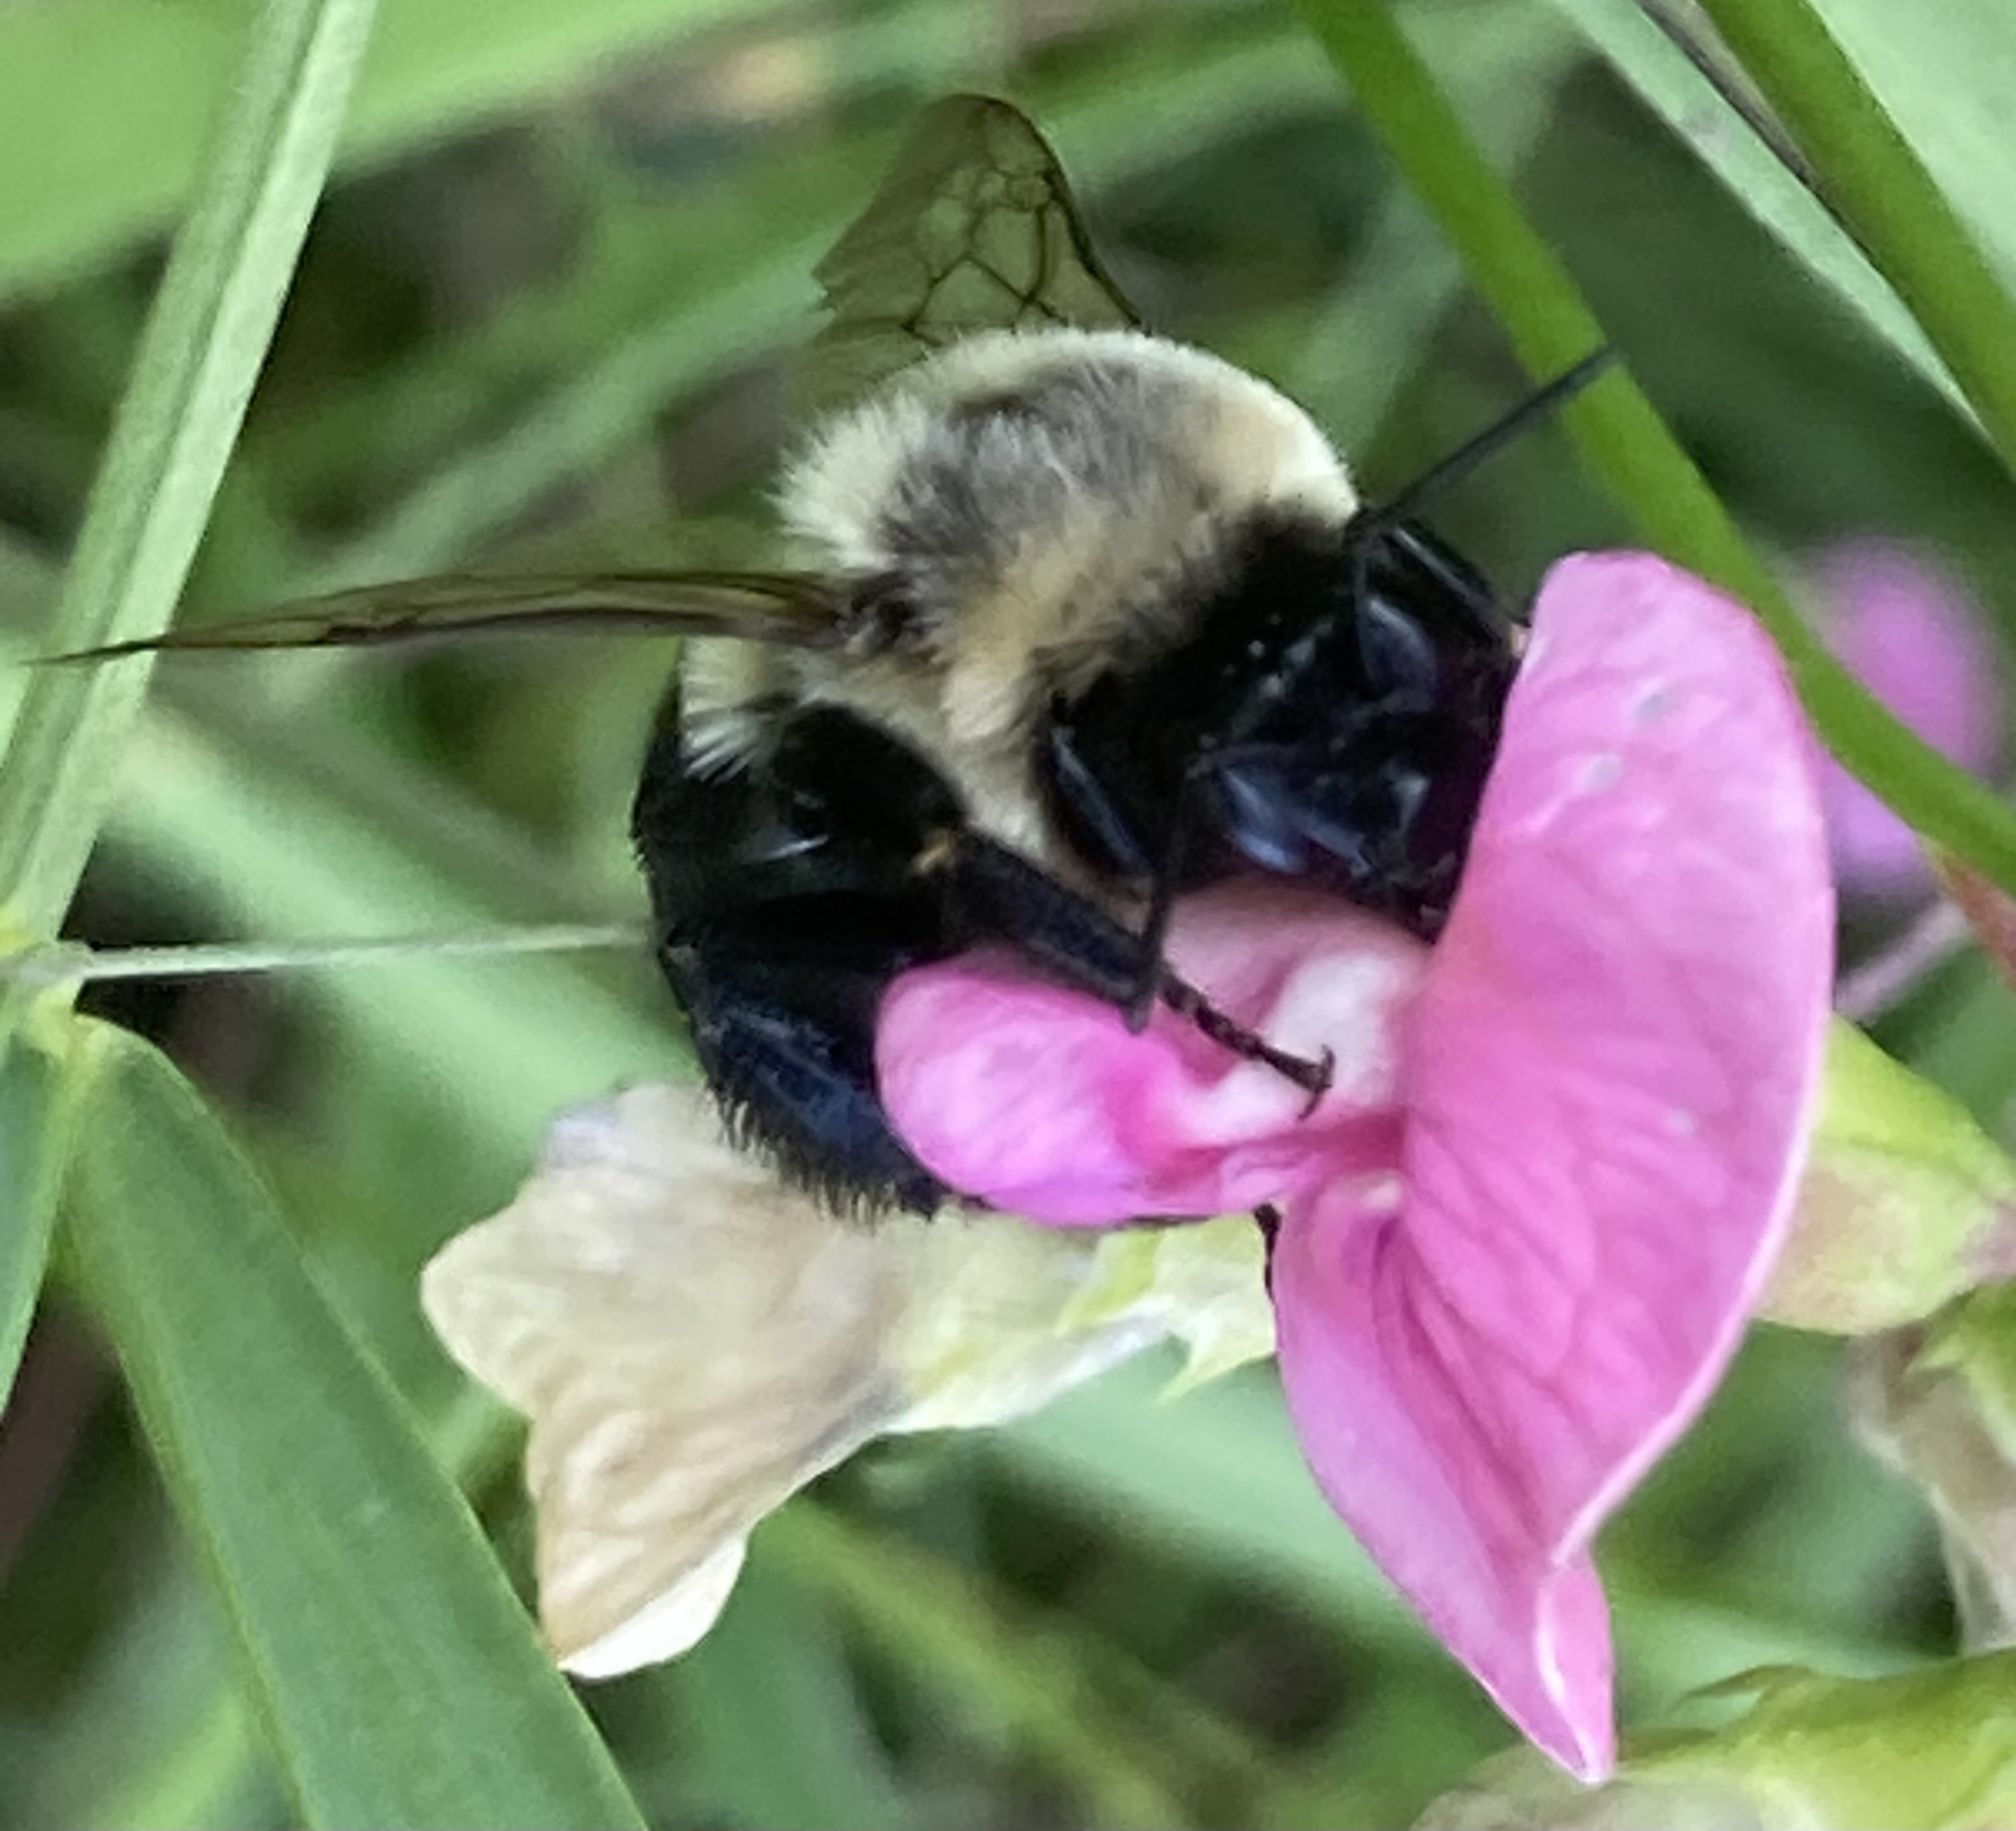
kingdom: Animalia
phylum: Arthropoda
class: Insecta
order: Hymenoptera
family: Apidae
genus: Bombus
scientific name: Bombus impatiens
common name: Common eastern bumble bee
